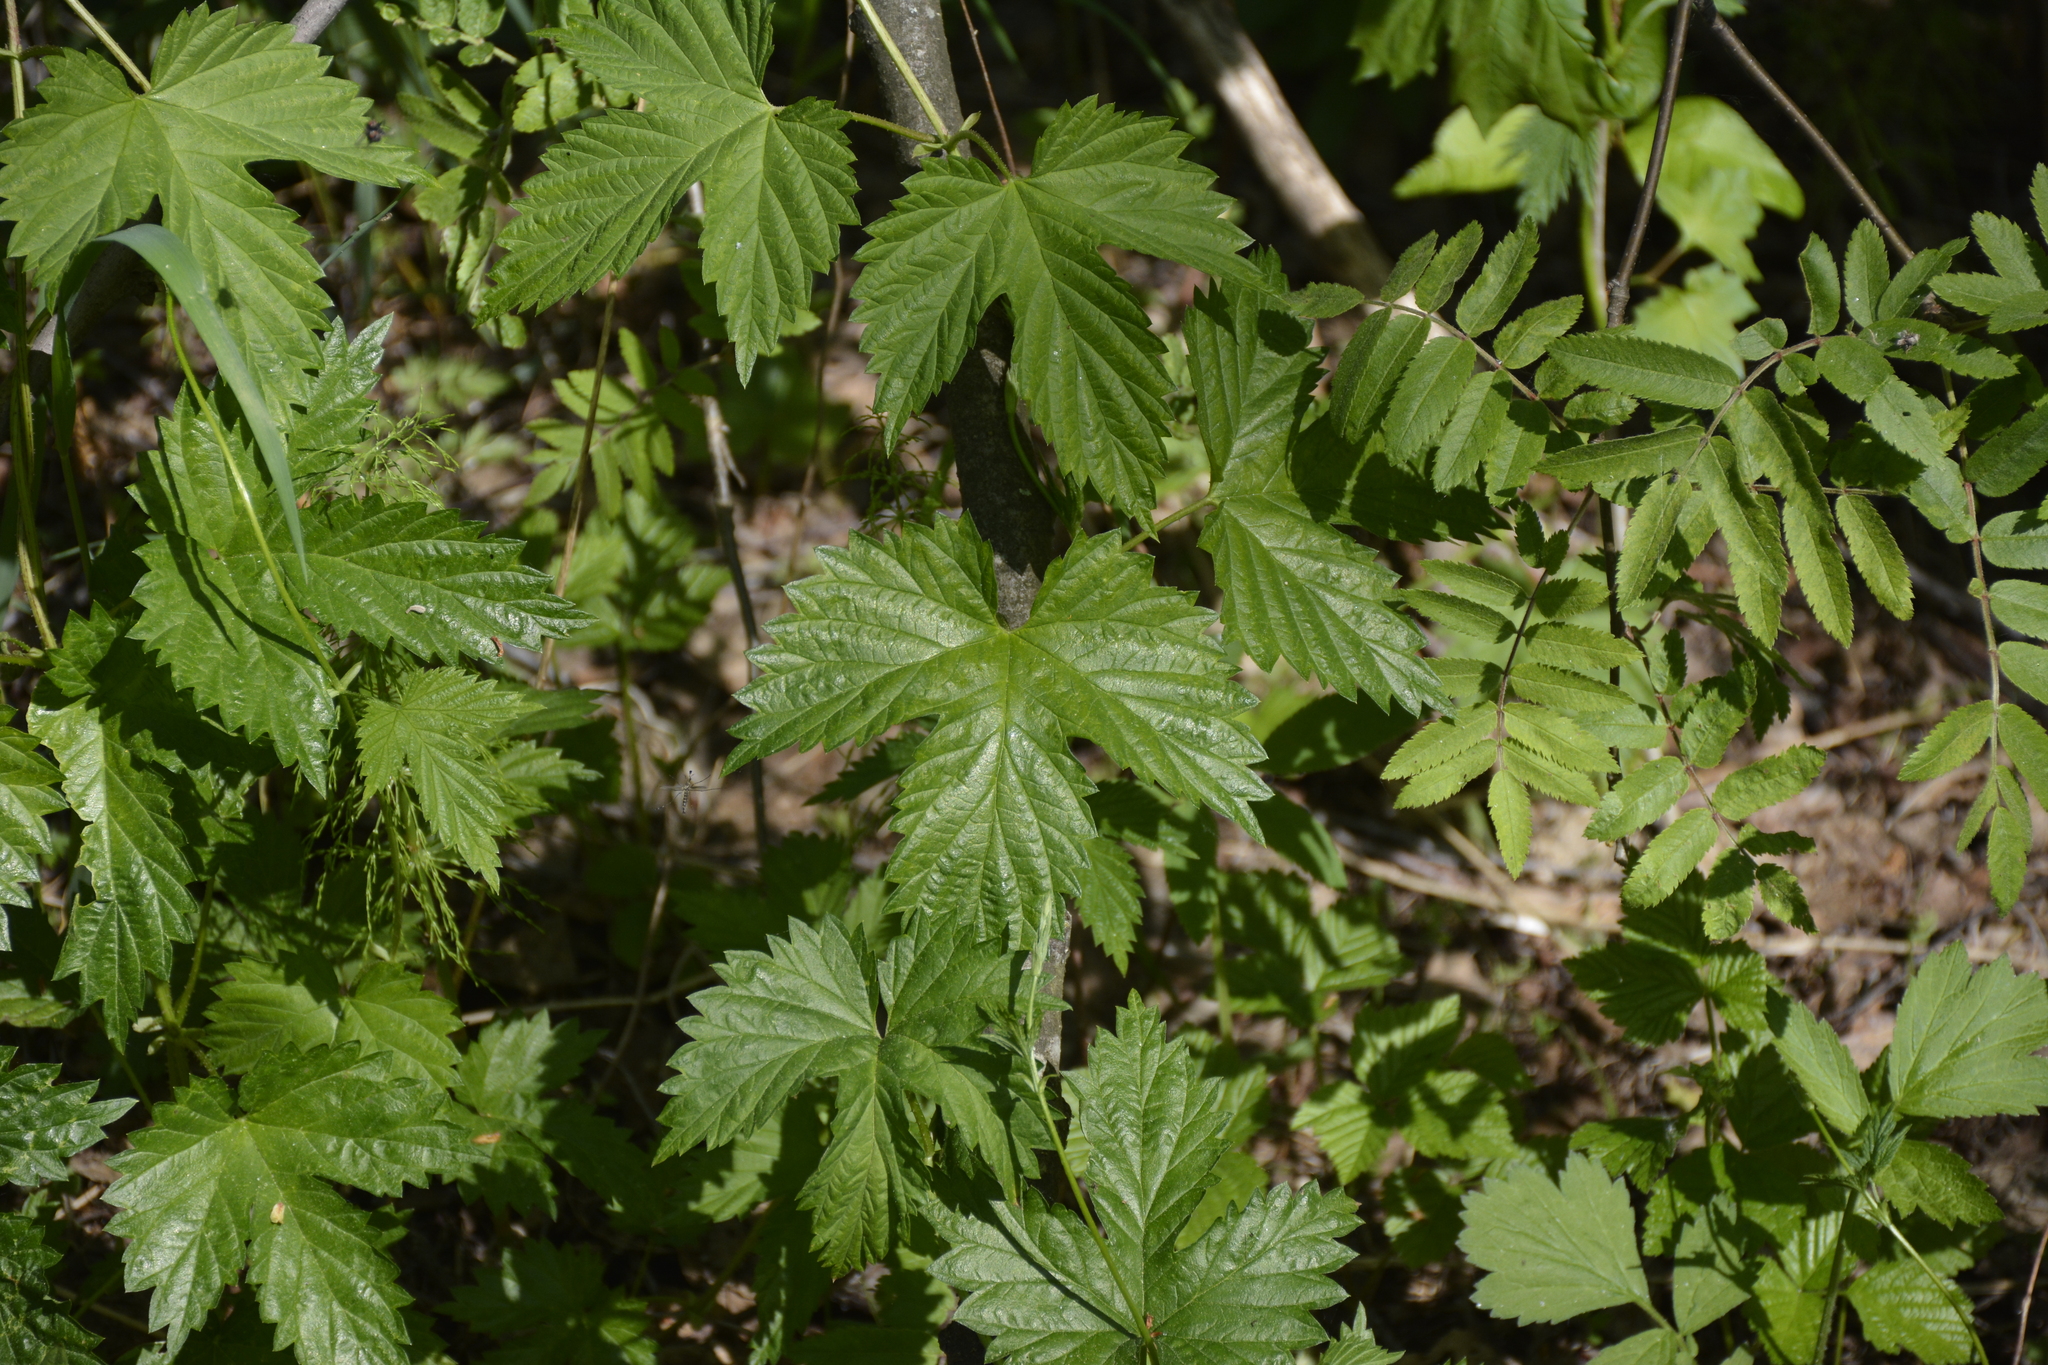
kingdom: Plantae
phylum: Tracheophyta
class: Magnoliopsida
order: Rosales
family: Cannabaceae
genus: Humulus
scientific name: Humulus lupulus
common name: Hop
